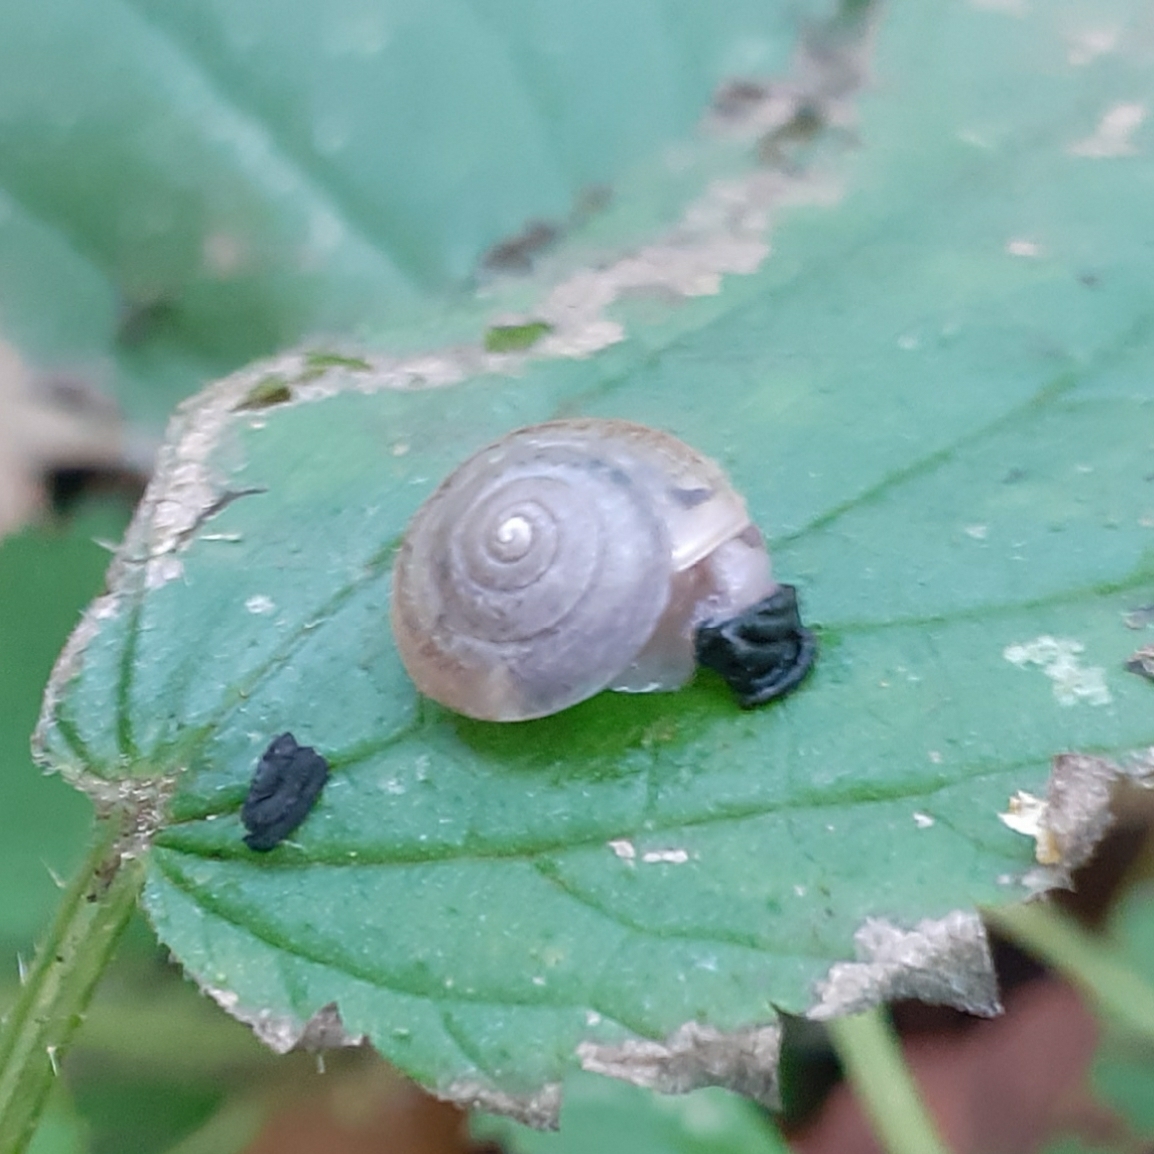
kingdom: Animalia
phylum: Mollusca
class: Gastropoda
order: Stylommatophora
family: Hygromiidae
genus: Hygromia
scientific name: Hygromia cinctella
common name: Girdled snail
